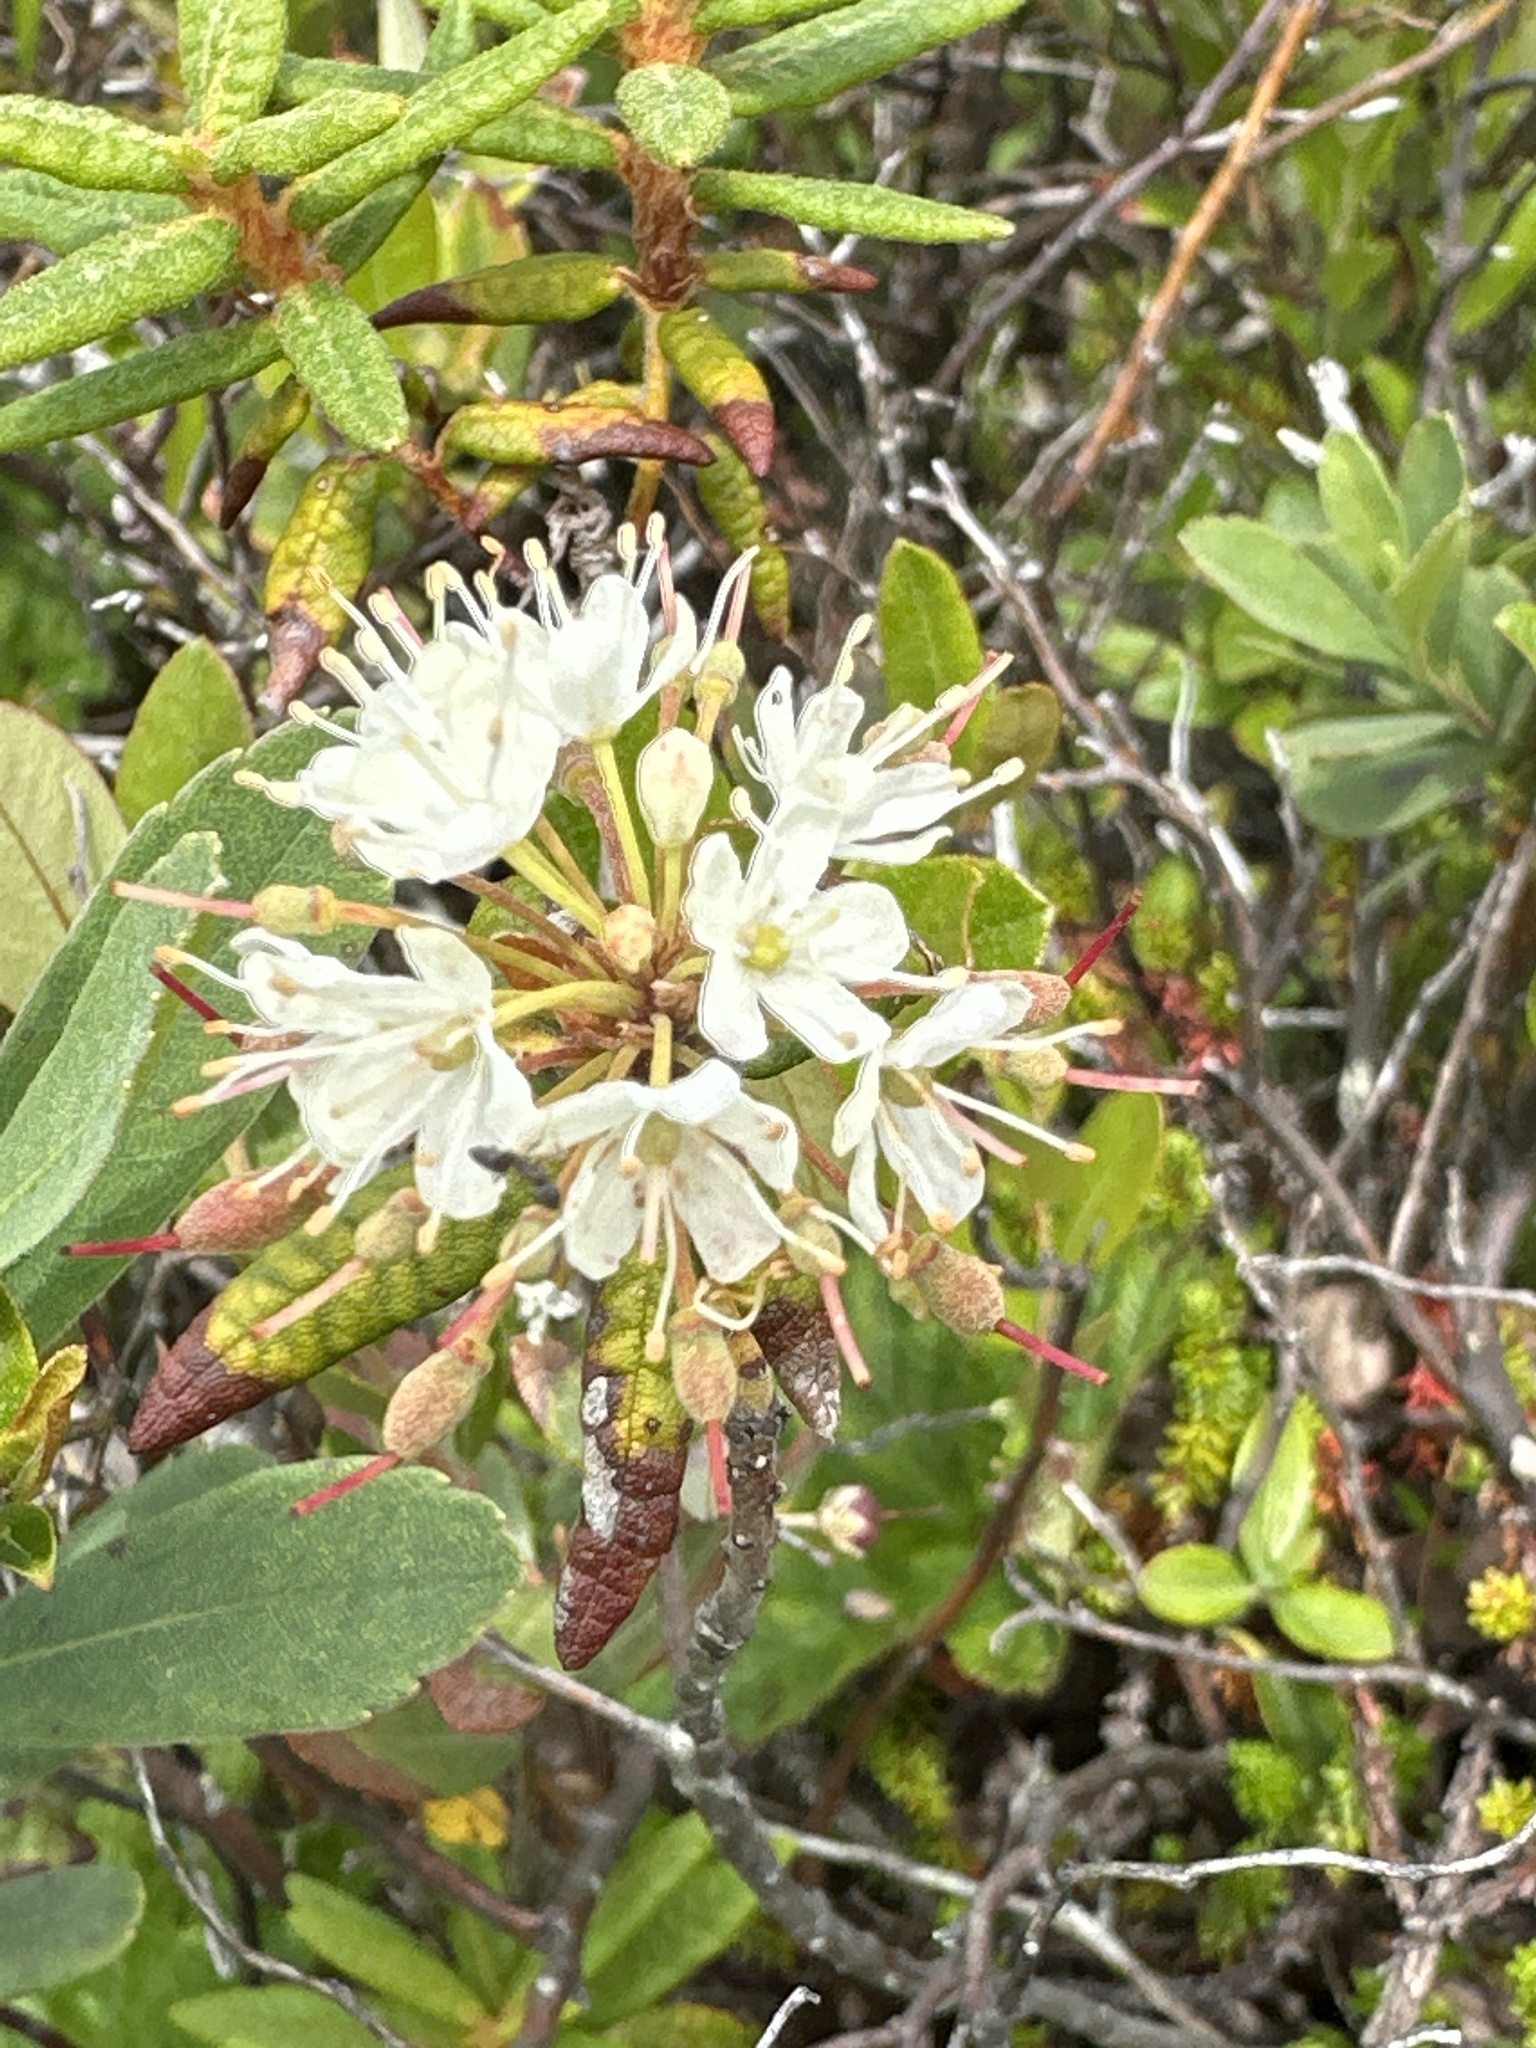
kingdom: Plantae
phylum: Tracheophyta
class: Magnoliopsida
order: Ericales
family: Ericaceae
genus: Rhododendron
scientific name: Rhododendron groenlandicum
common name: Bog labrador tea
